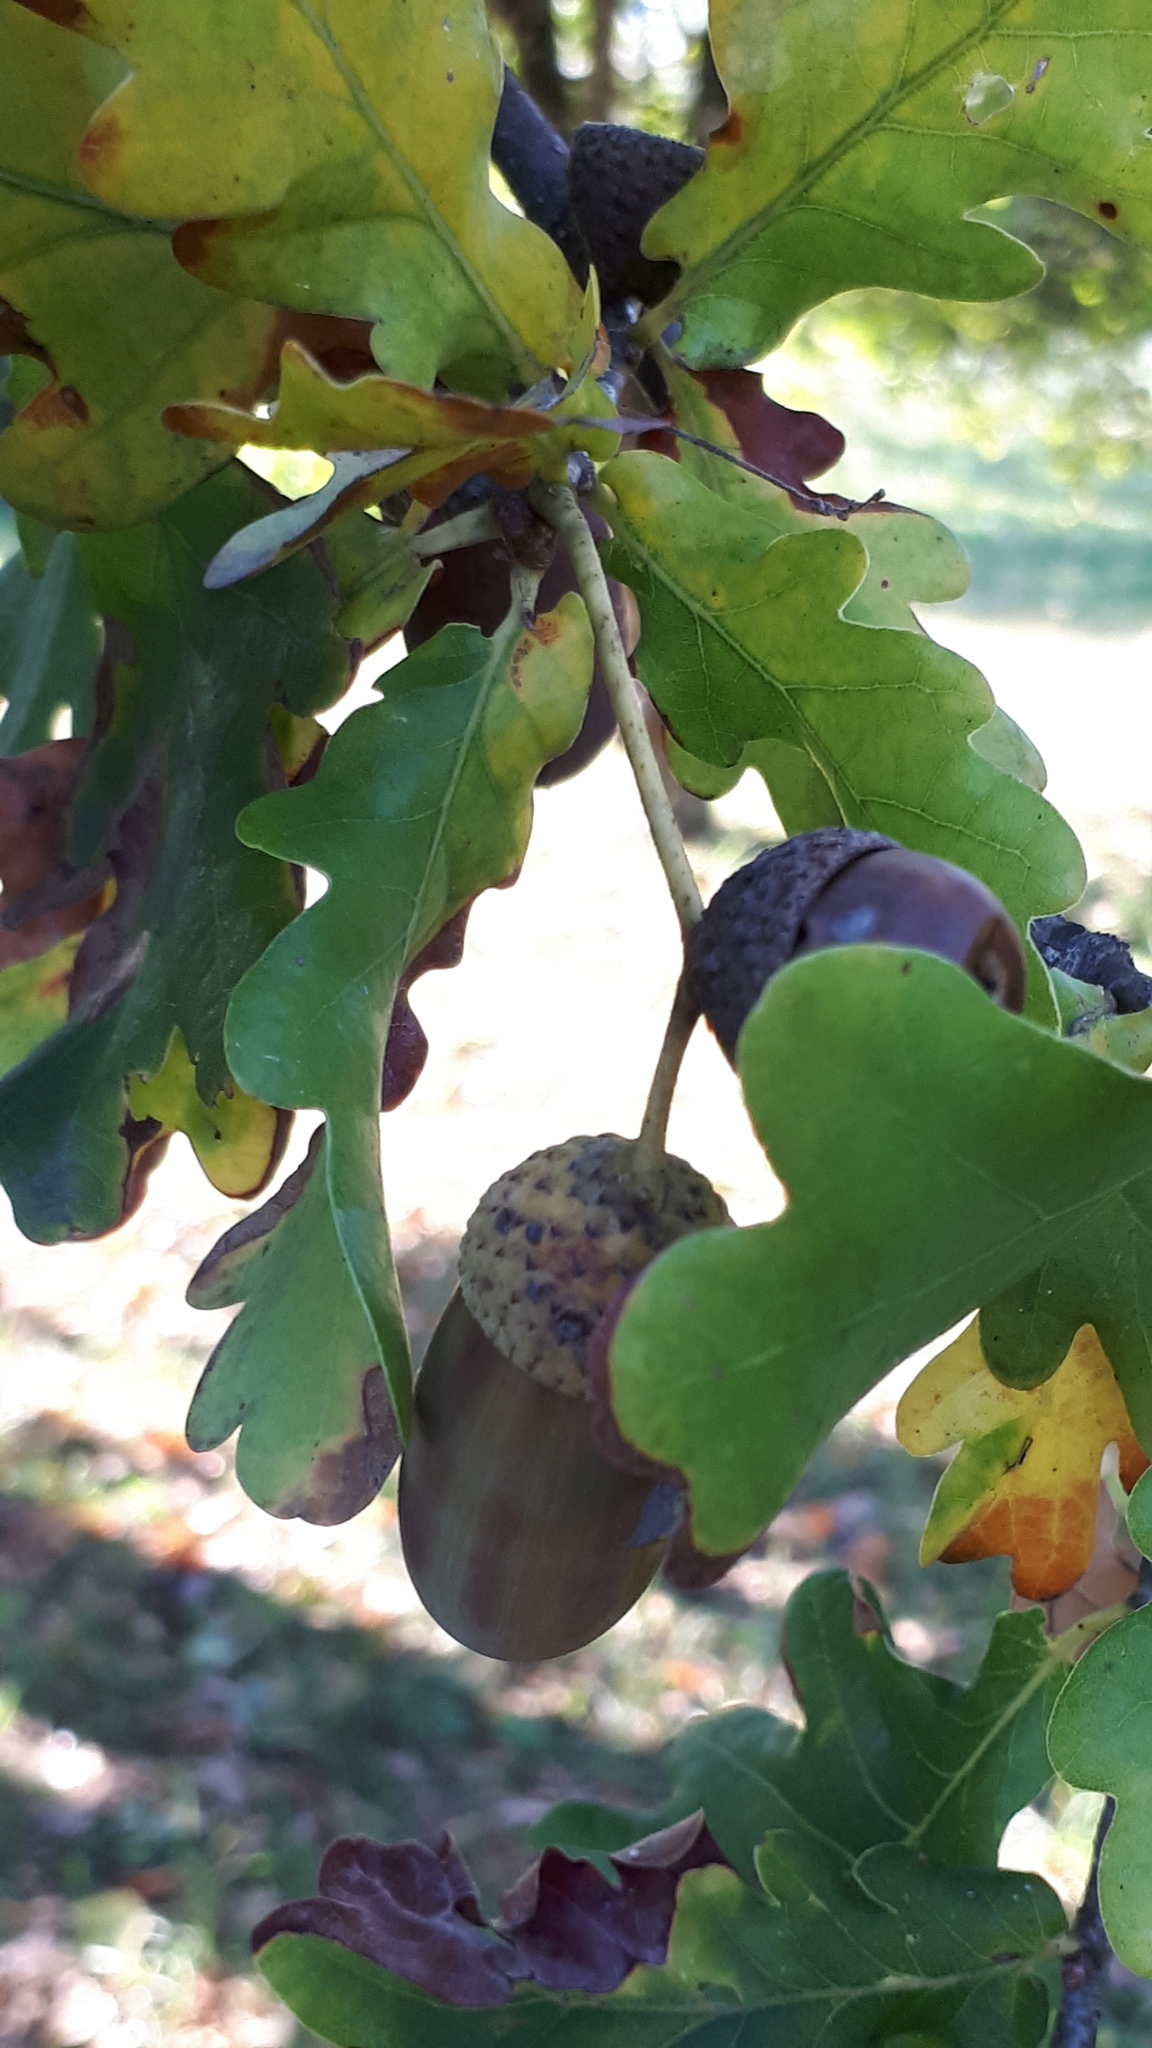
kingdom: Plantae
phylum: Tracheophyta
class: Magnoliopsida
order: Fagales
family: Fagaceae
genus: Quercus
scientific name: Quercus robur
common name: Pedunculate oak
